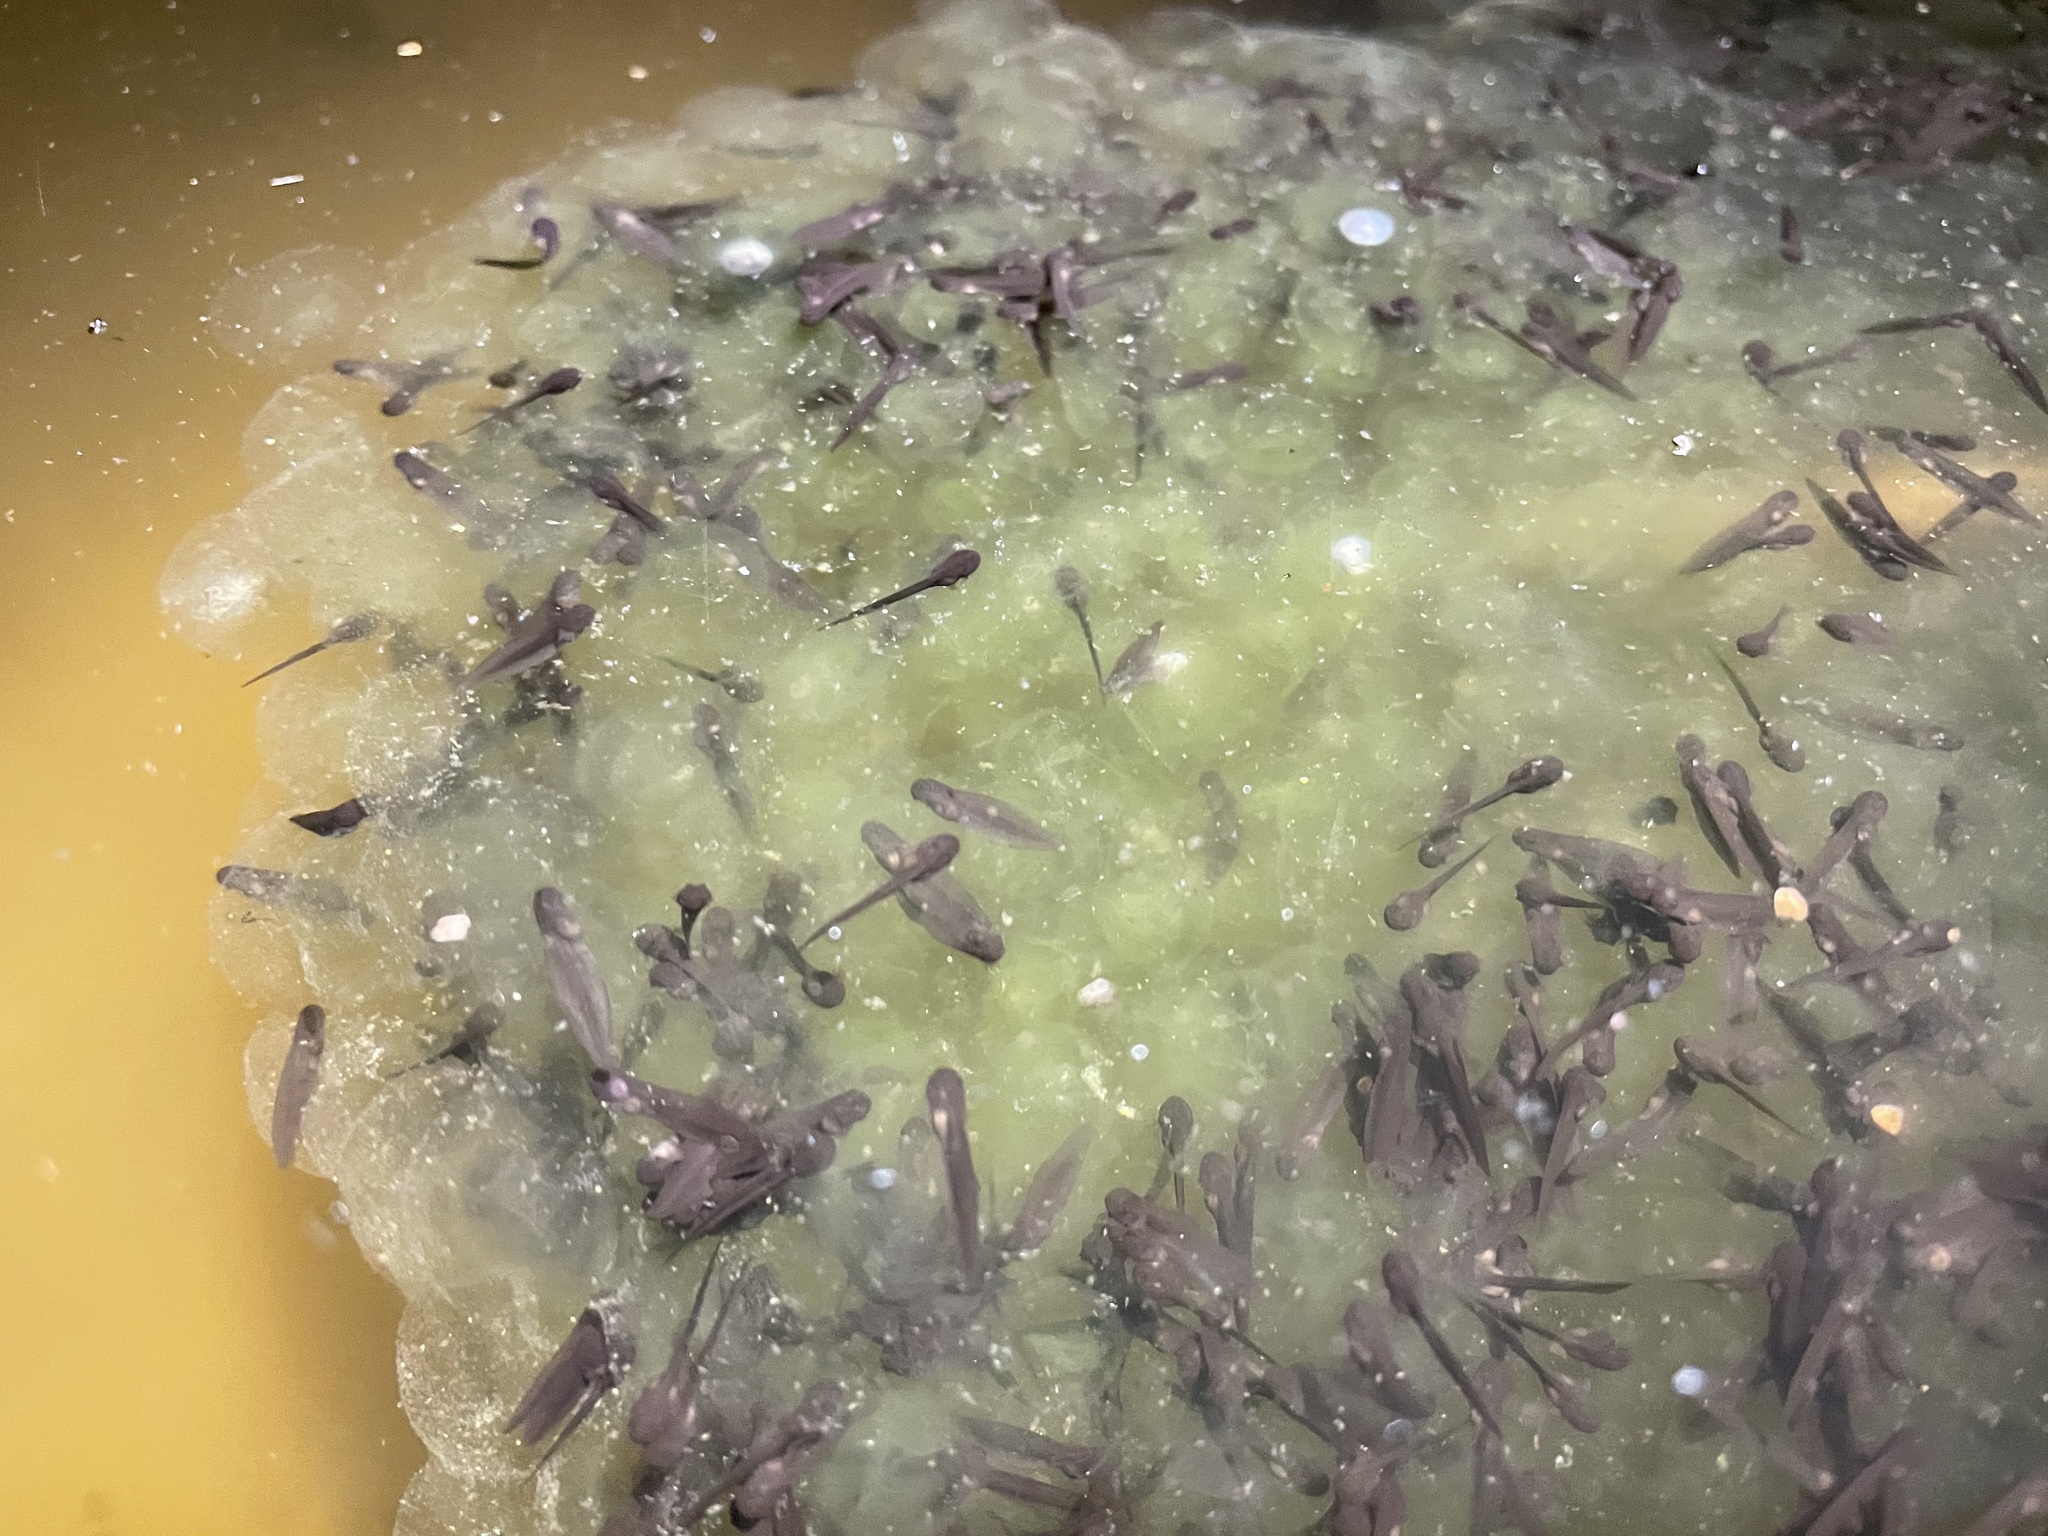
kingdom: Animalia
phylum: Chordata
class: Amphibia
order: Anura
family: Ranidae
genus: Lithobates
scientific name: Lithobates sylvaticus
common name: Wood frog
